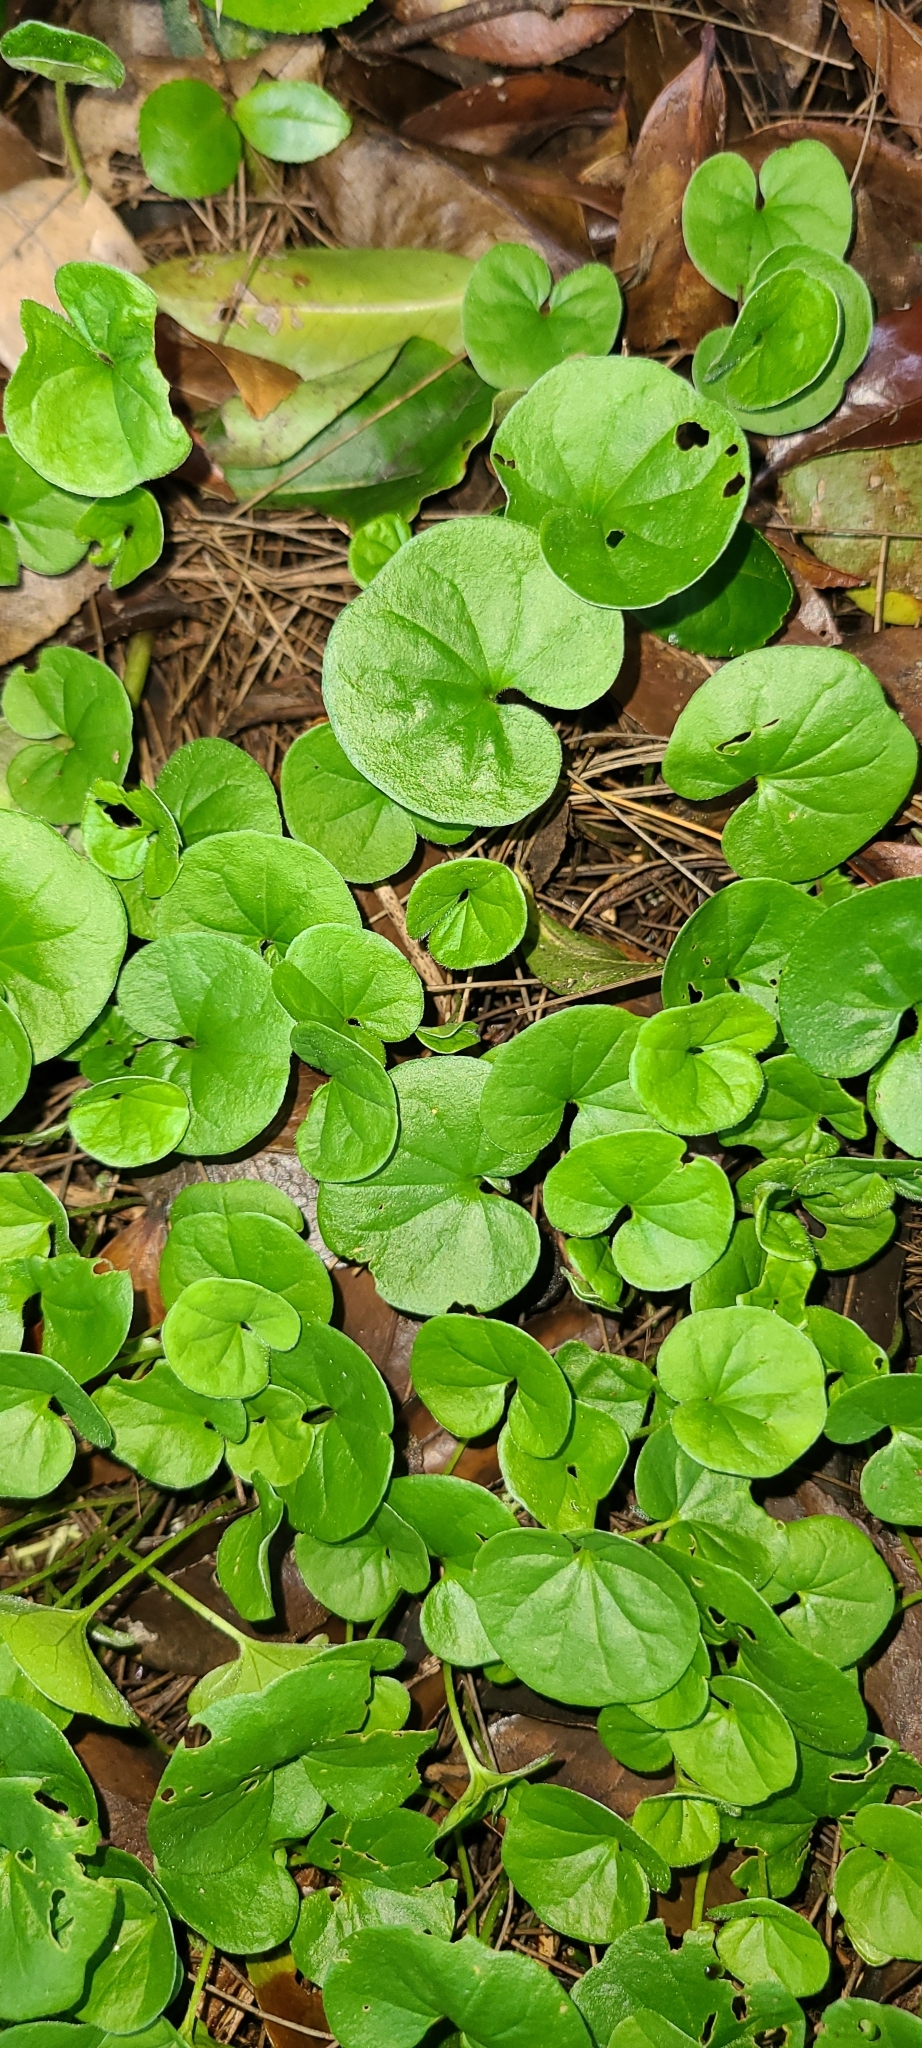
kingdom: Plantae
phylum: Tracheophyta
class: Magnoliopsida
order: Malpighiales
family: Violaceae
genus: Viola
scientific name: Viola odorata
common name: Sweet violet
